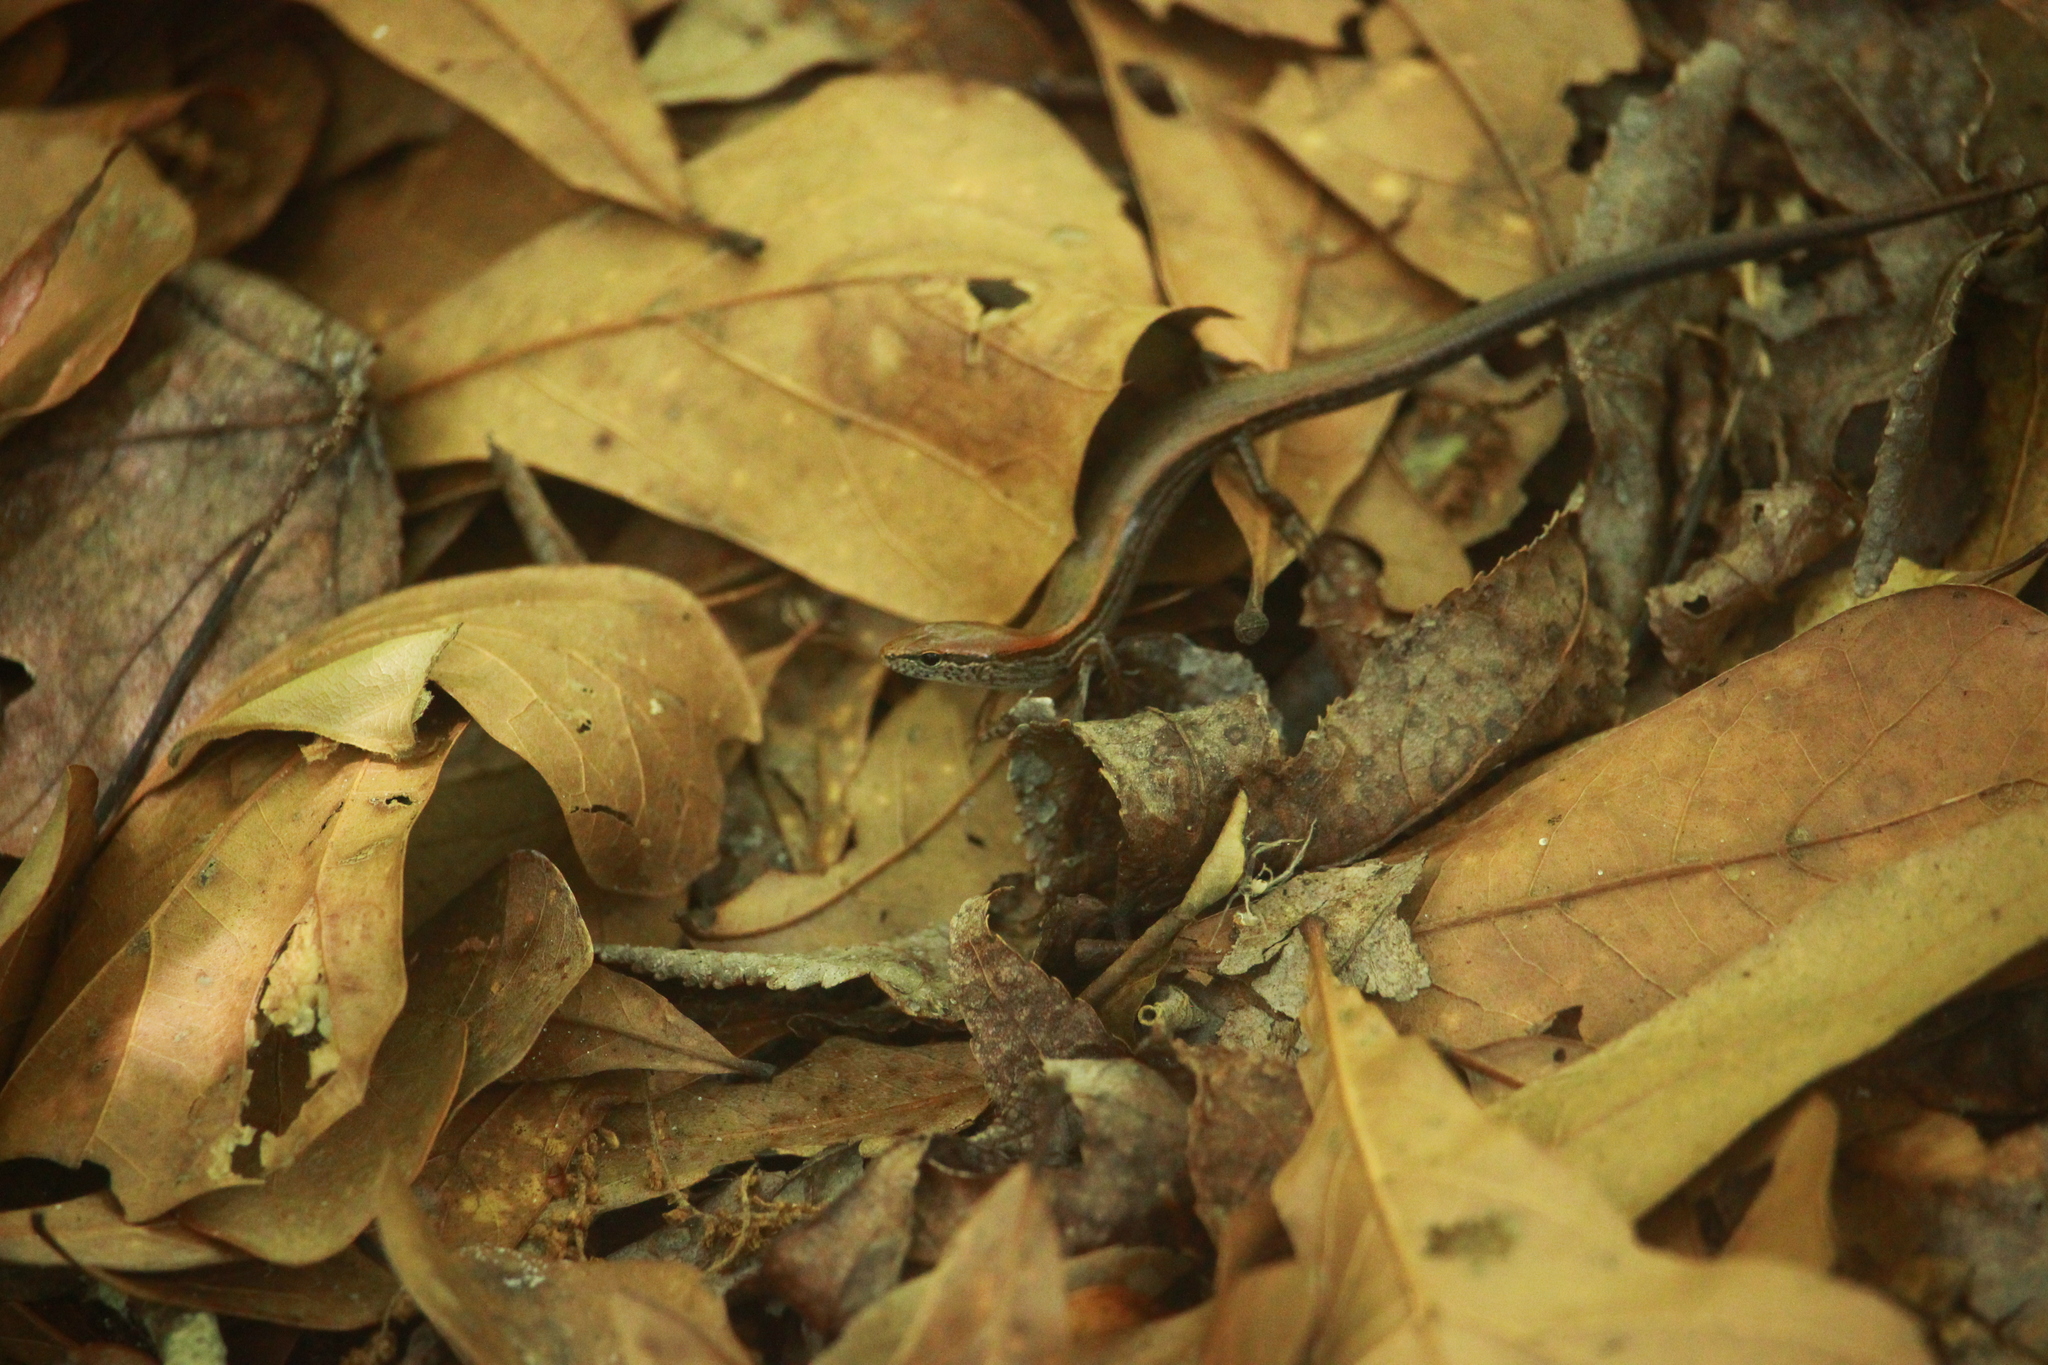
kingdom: Animalia
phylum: Chordata
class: Squamata
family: Scincidae
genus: Scincella
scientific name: Scincella lateralis
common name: Ground skink
